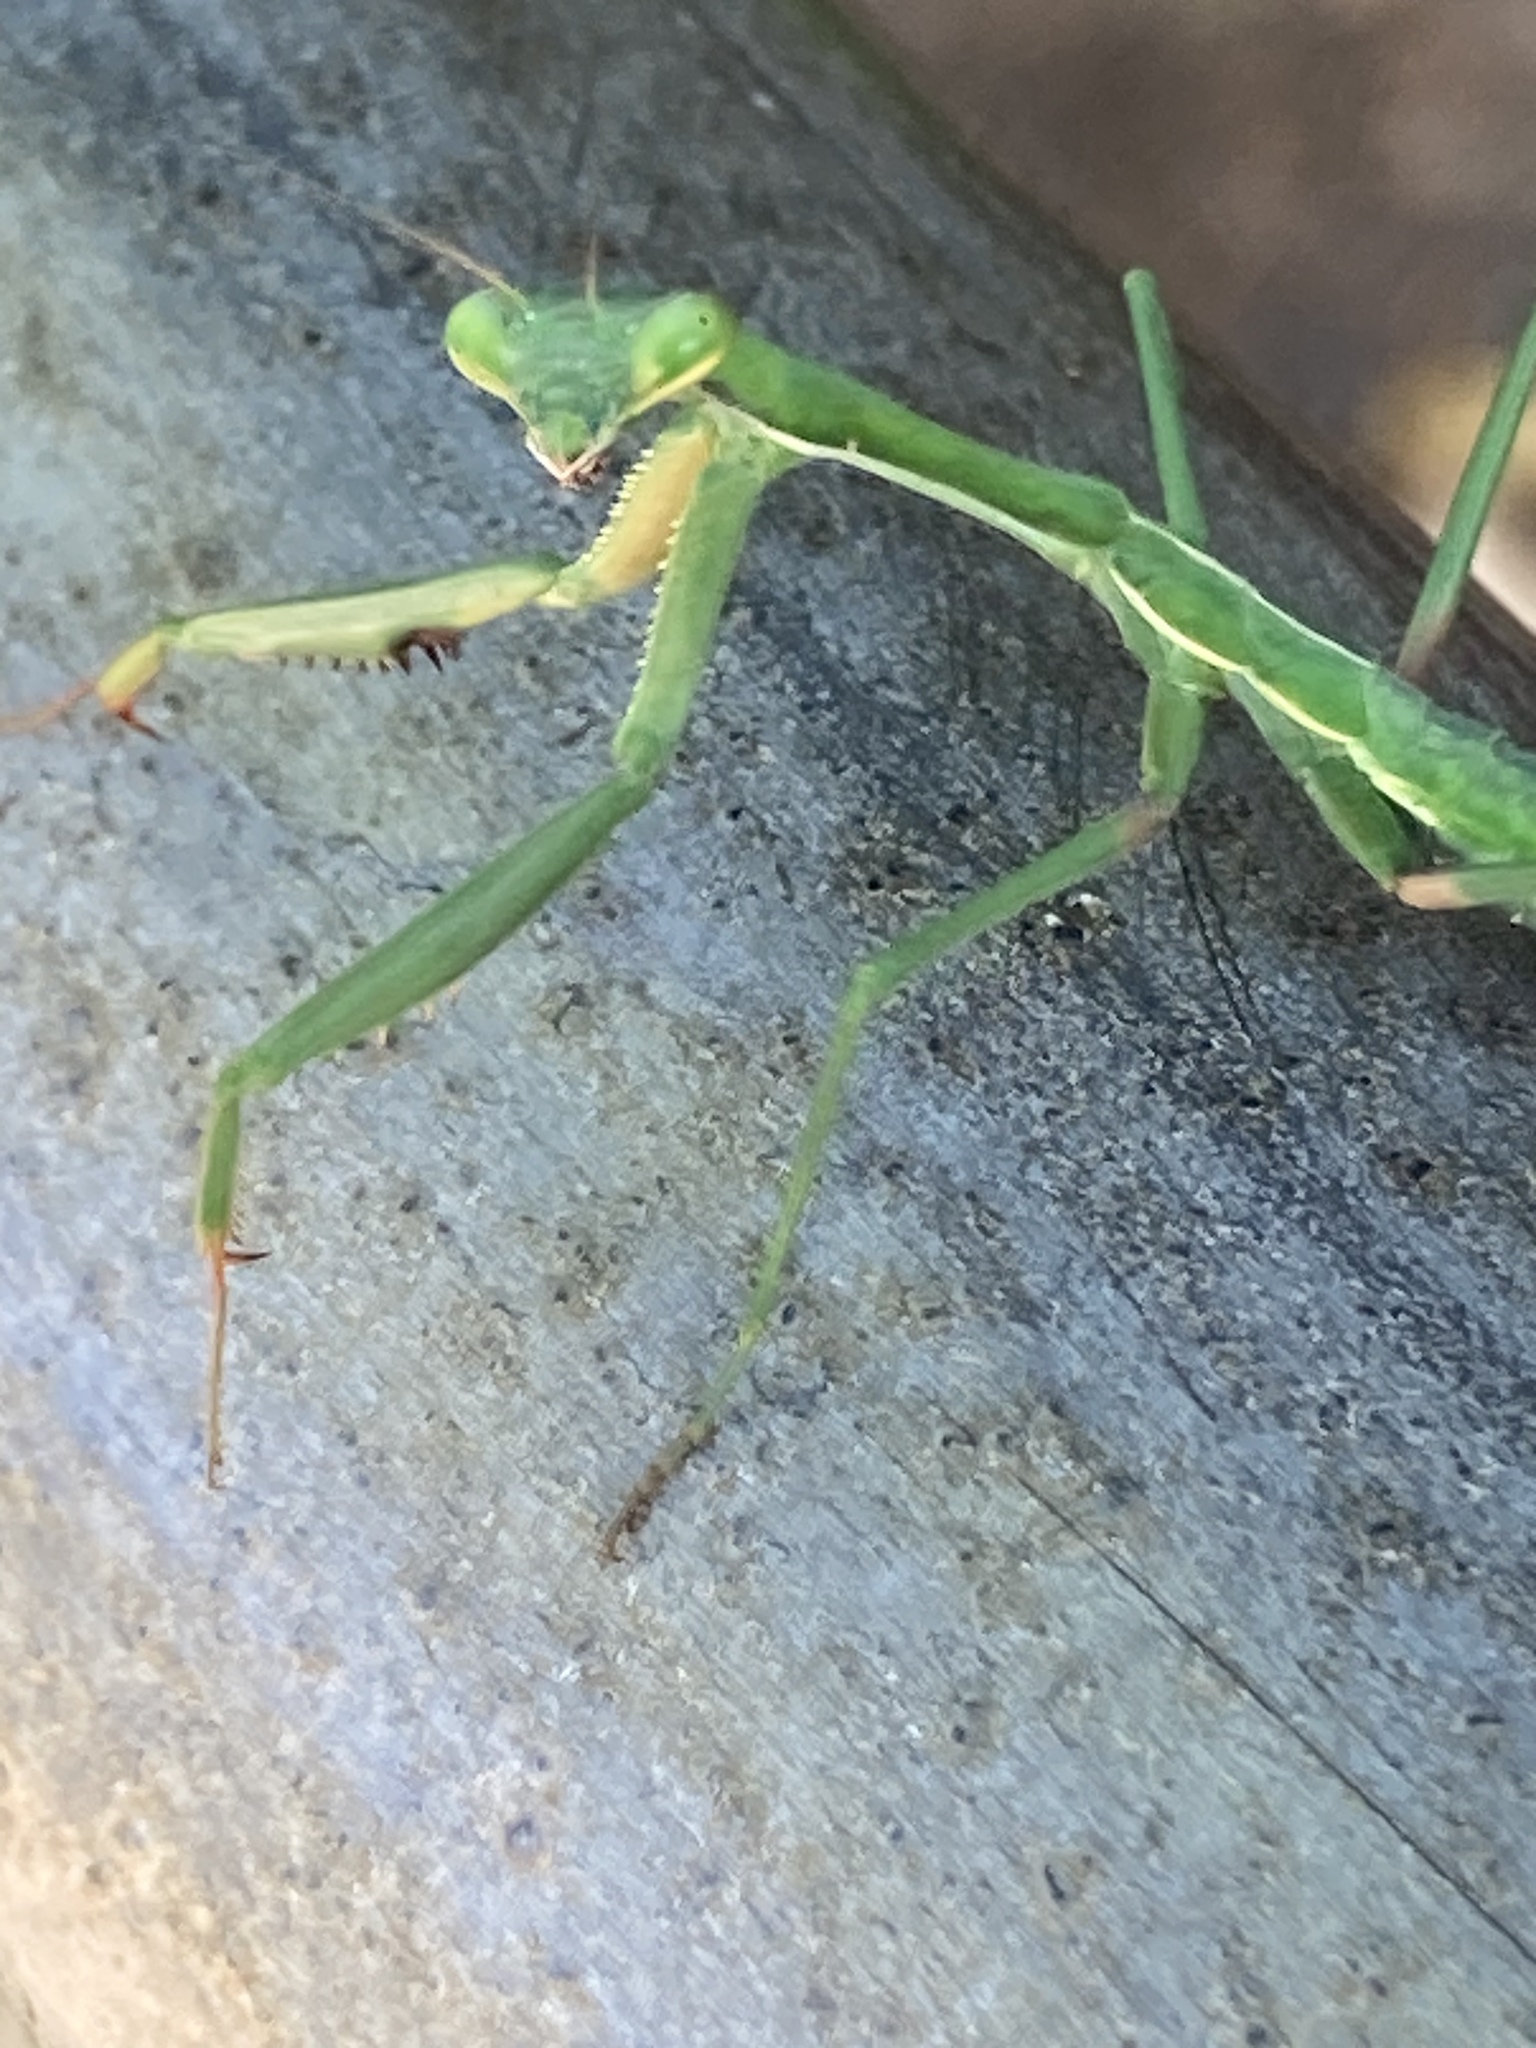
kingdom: Animalia
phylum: Arthropoda
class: Insecta
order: Mantodea
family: Mantidae
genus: Pseudomantis
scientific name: Pseudomantis albofimbriata
